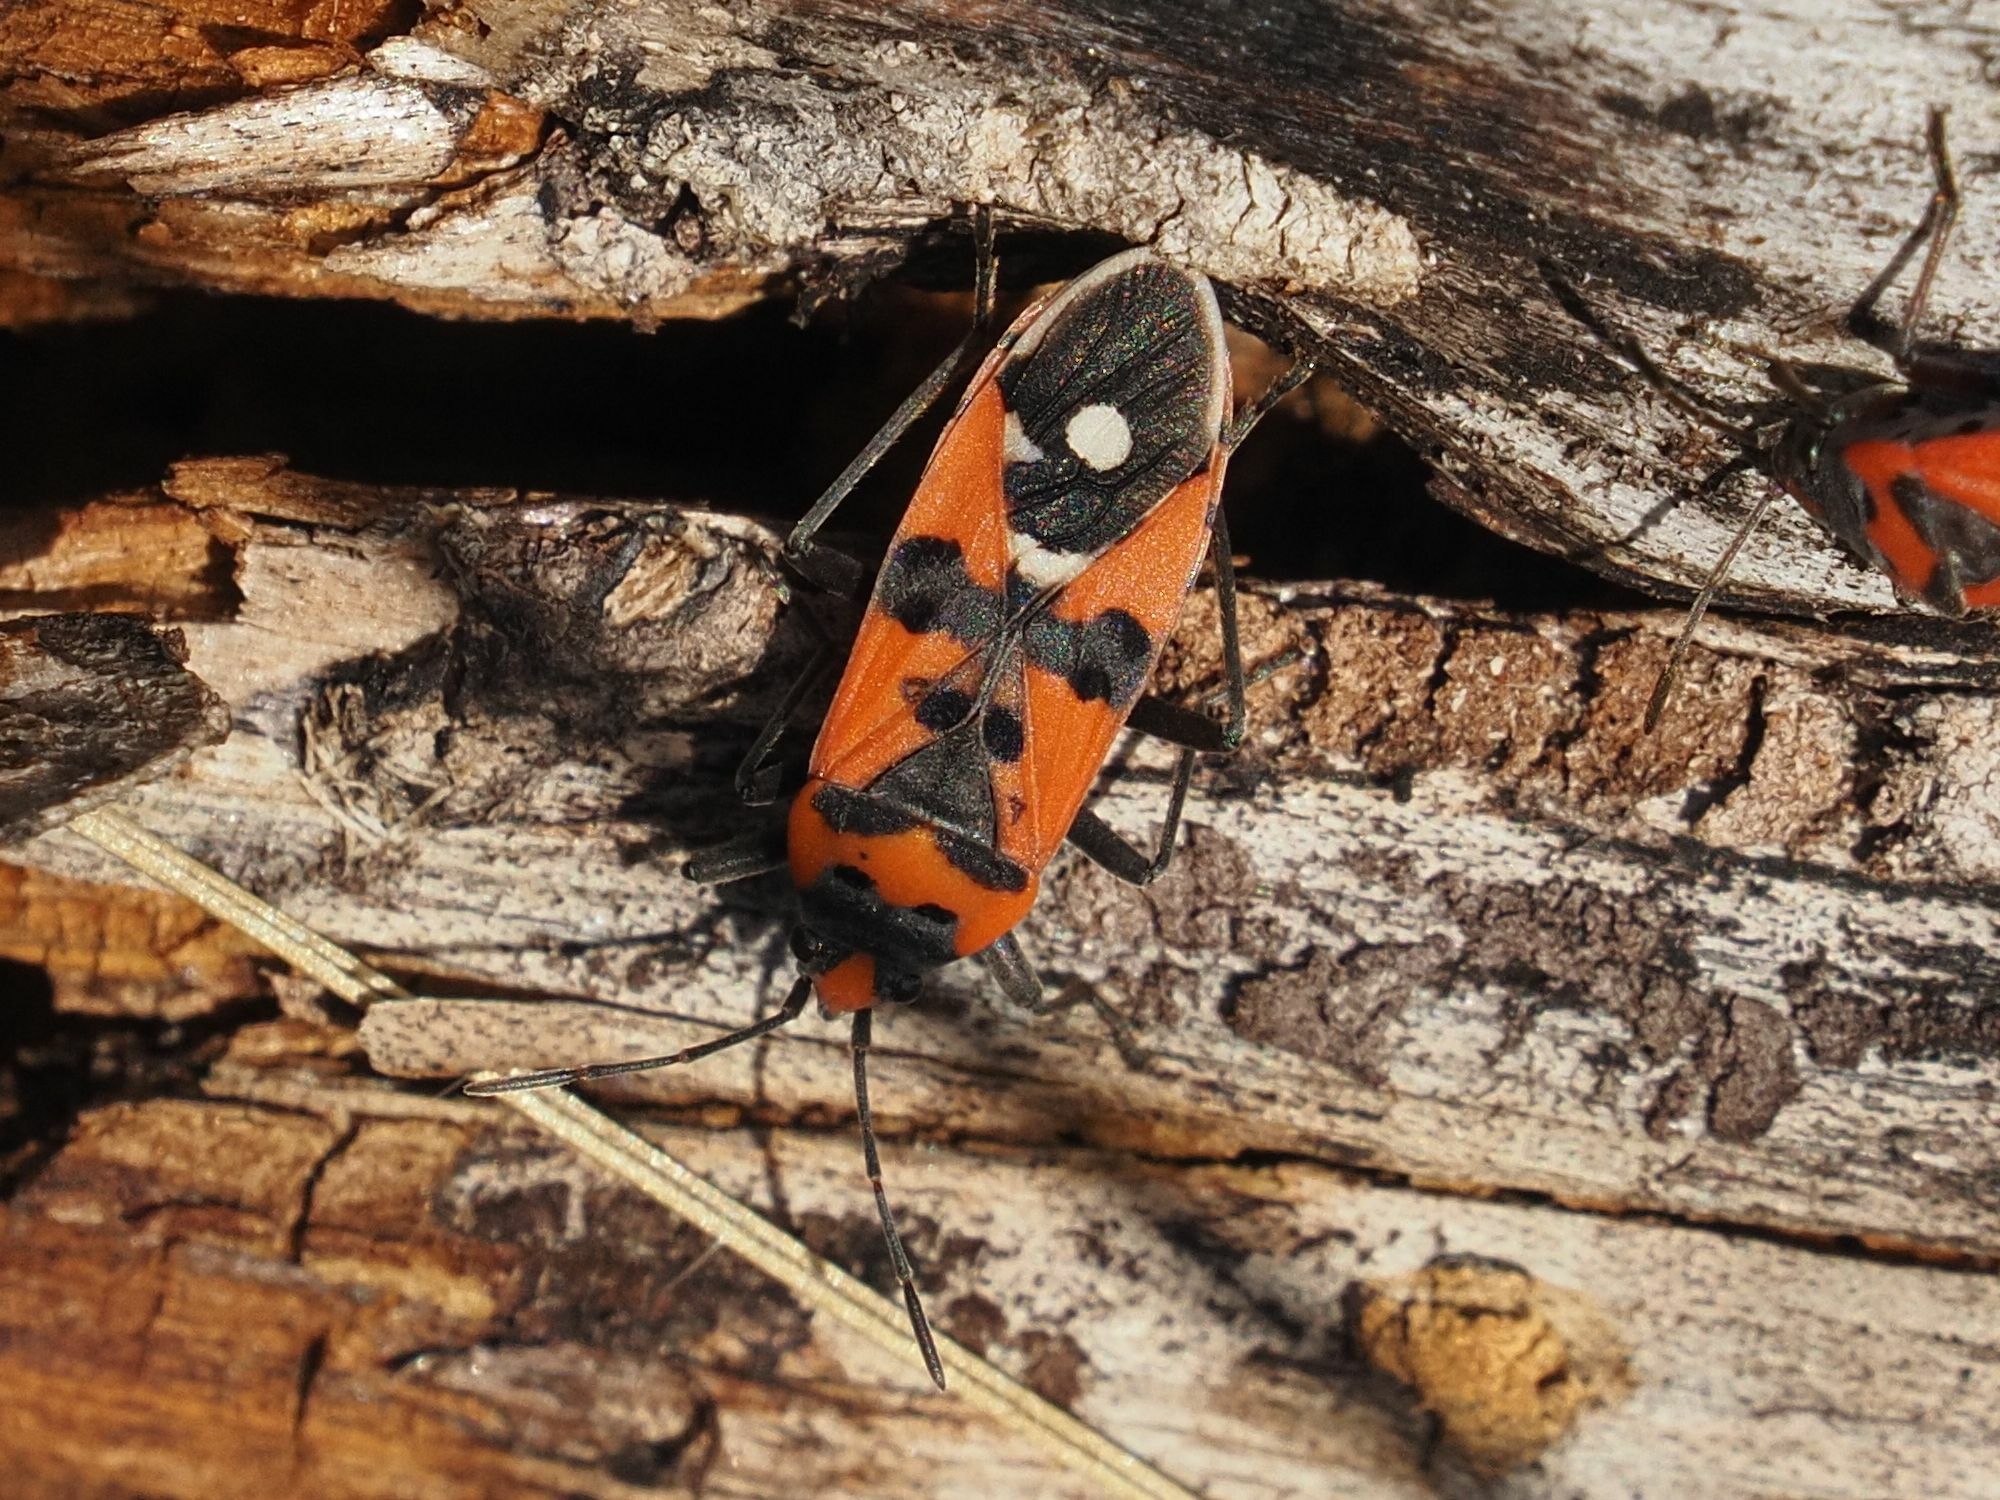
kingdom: Animalia
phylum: Arthropoda
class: Insecta
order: Hemiptera
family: Lygaeidae
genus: Lygaeus
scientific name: Lygaeus equestris
